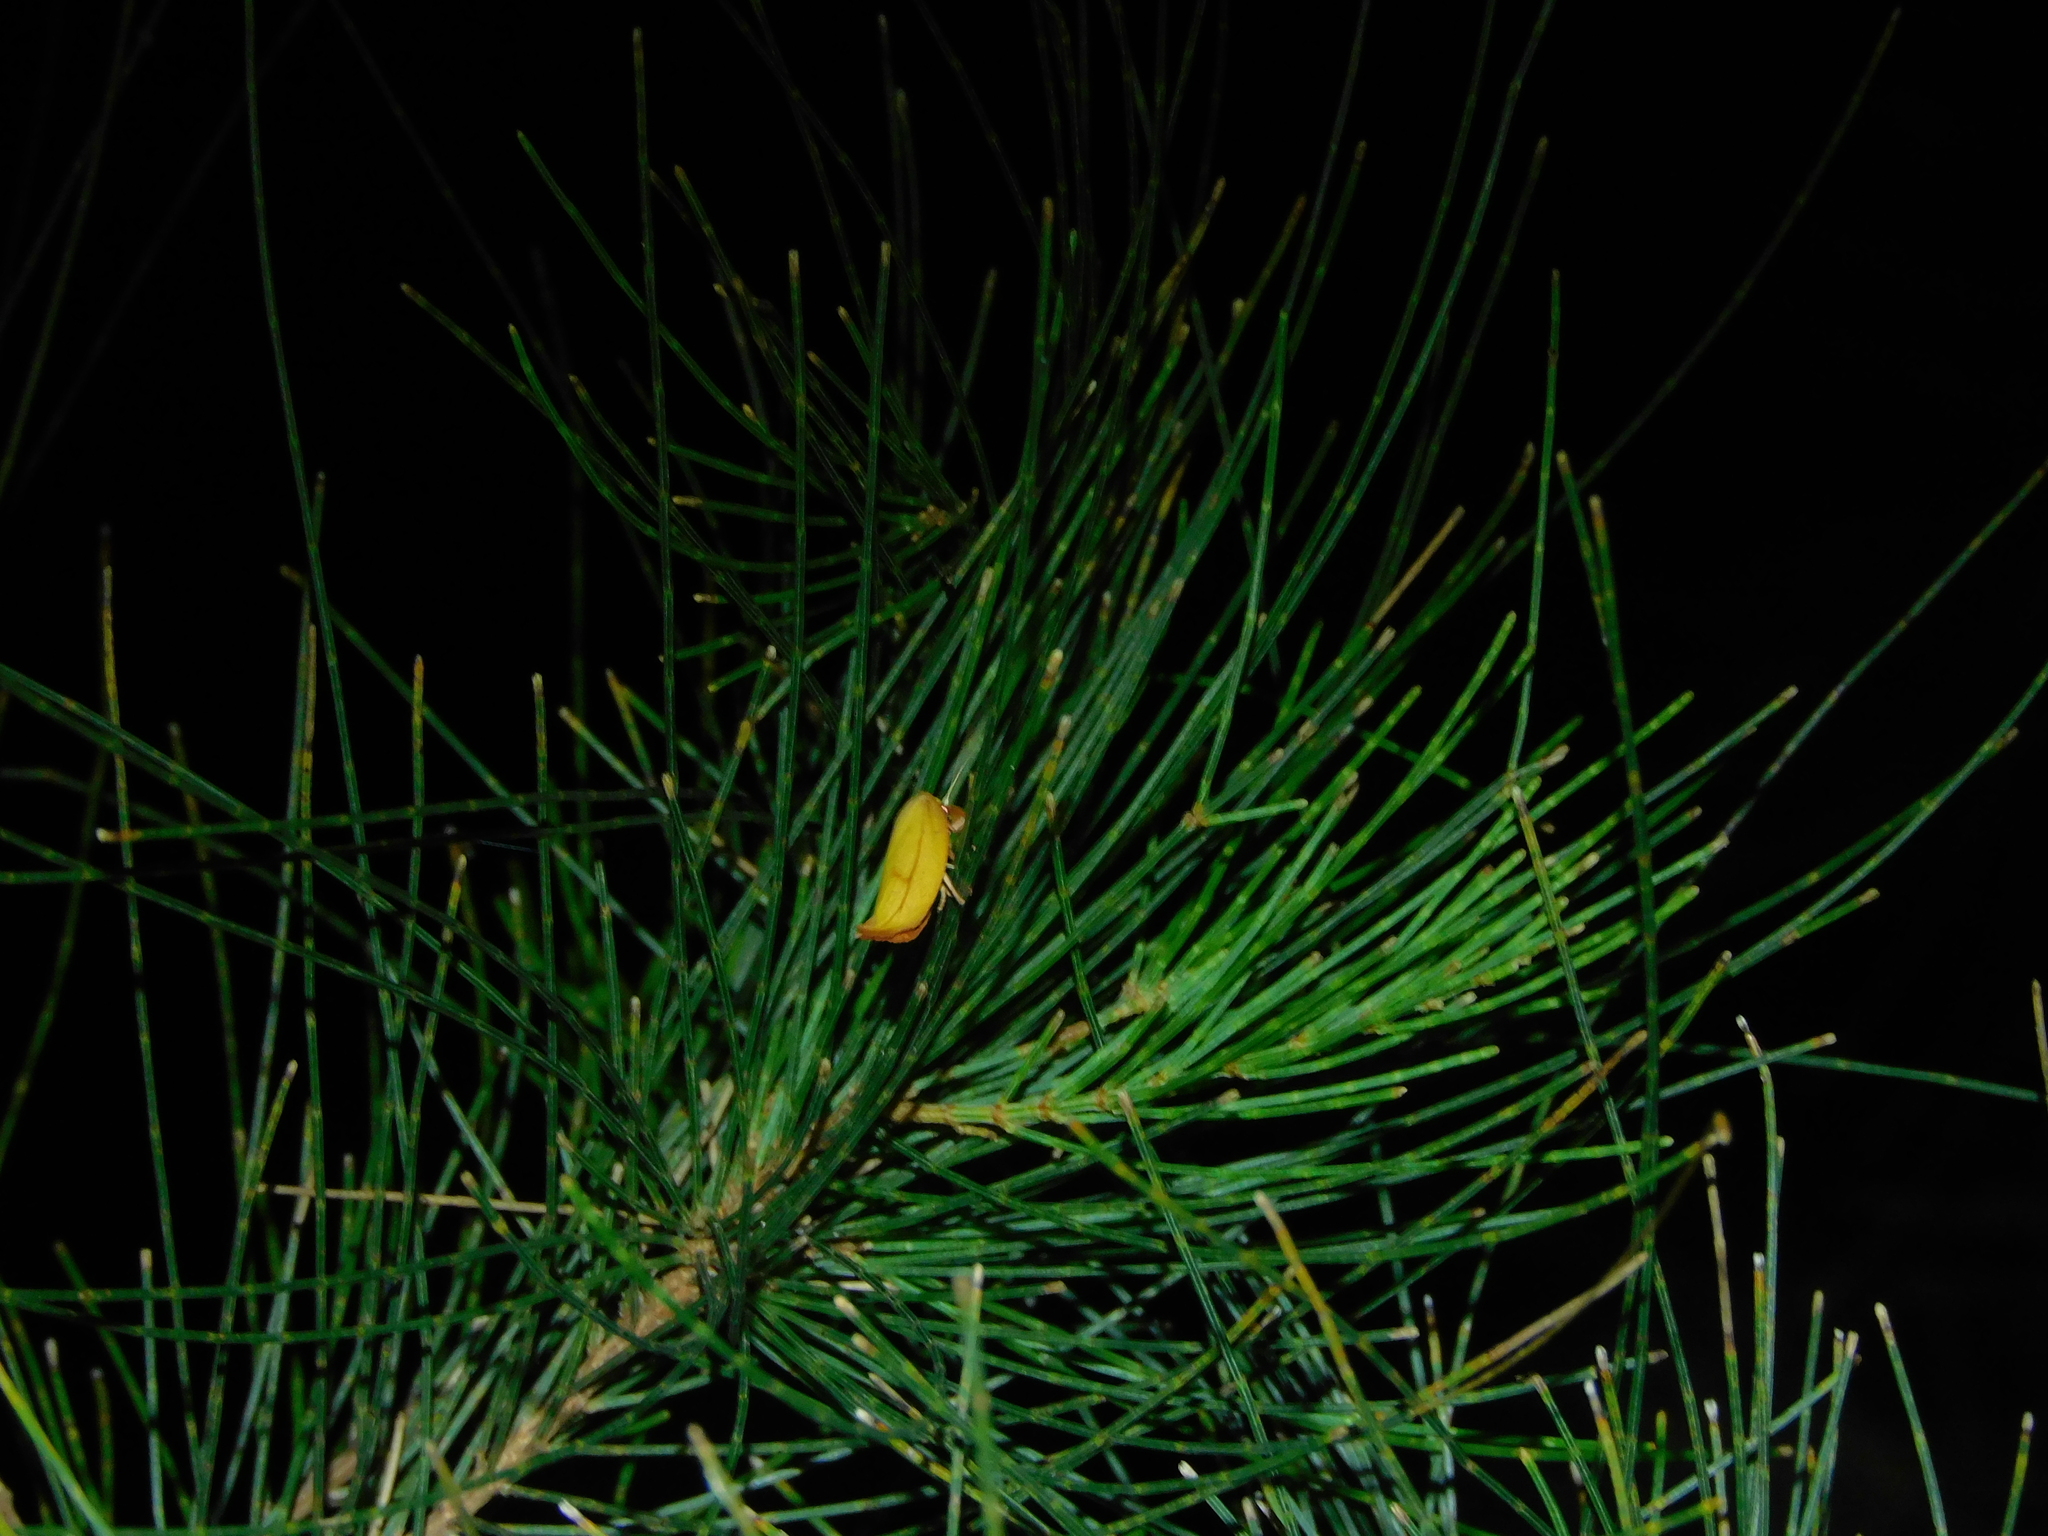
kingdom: Animalia
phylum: Arthropoda
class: Insecta
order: Lepidoptera
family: Oecophoridae
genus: Wingia
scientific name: Wingia aurata
